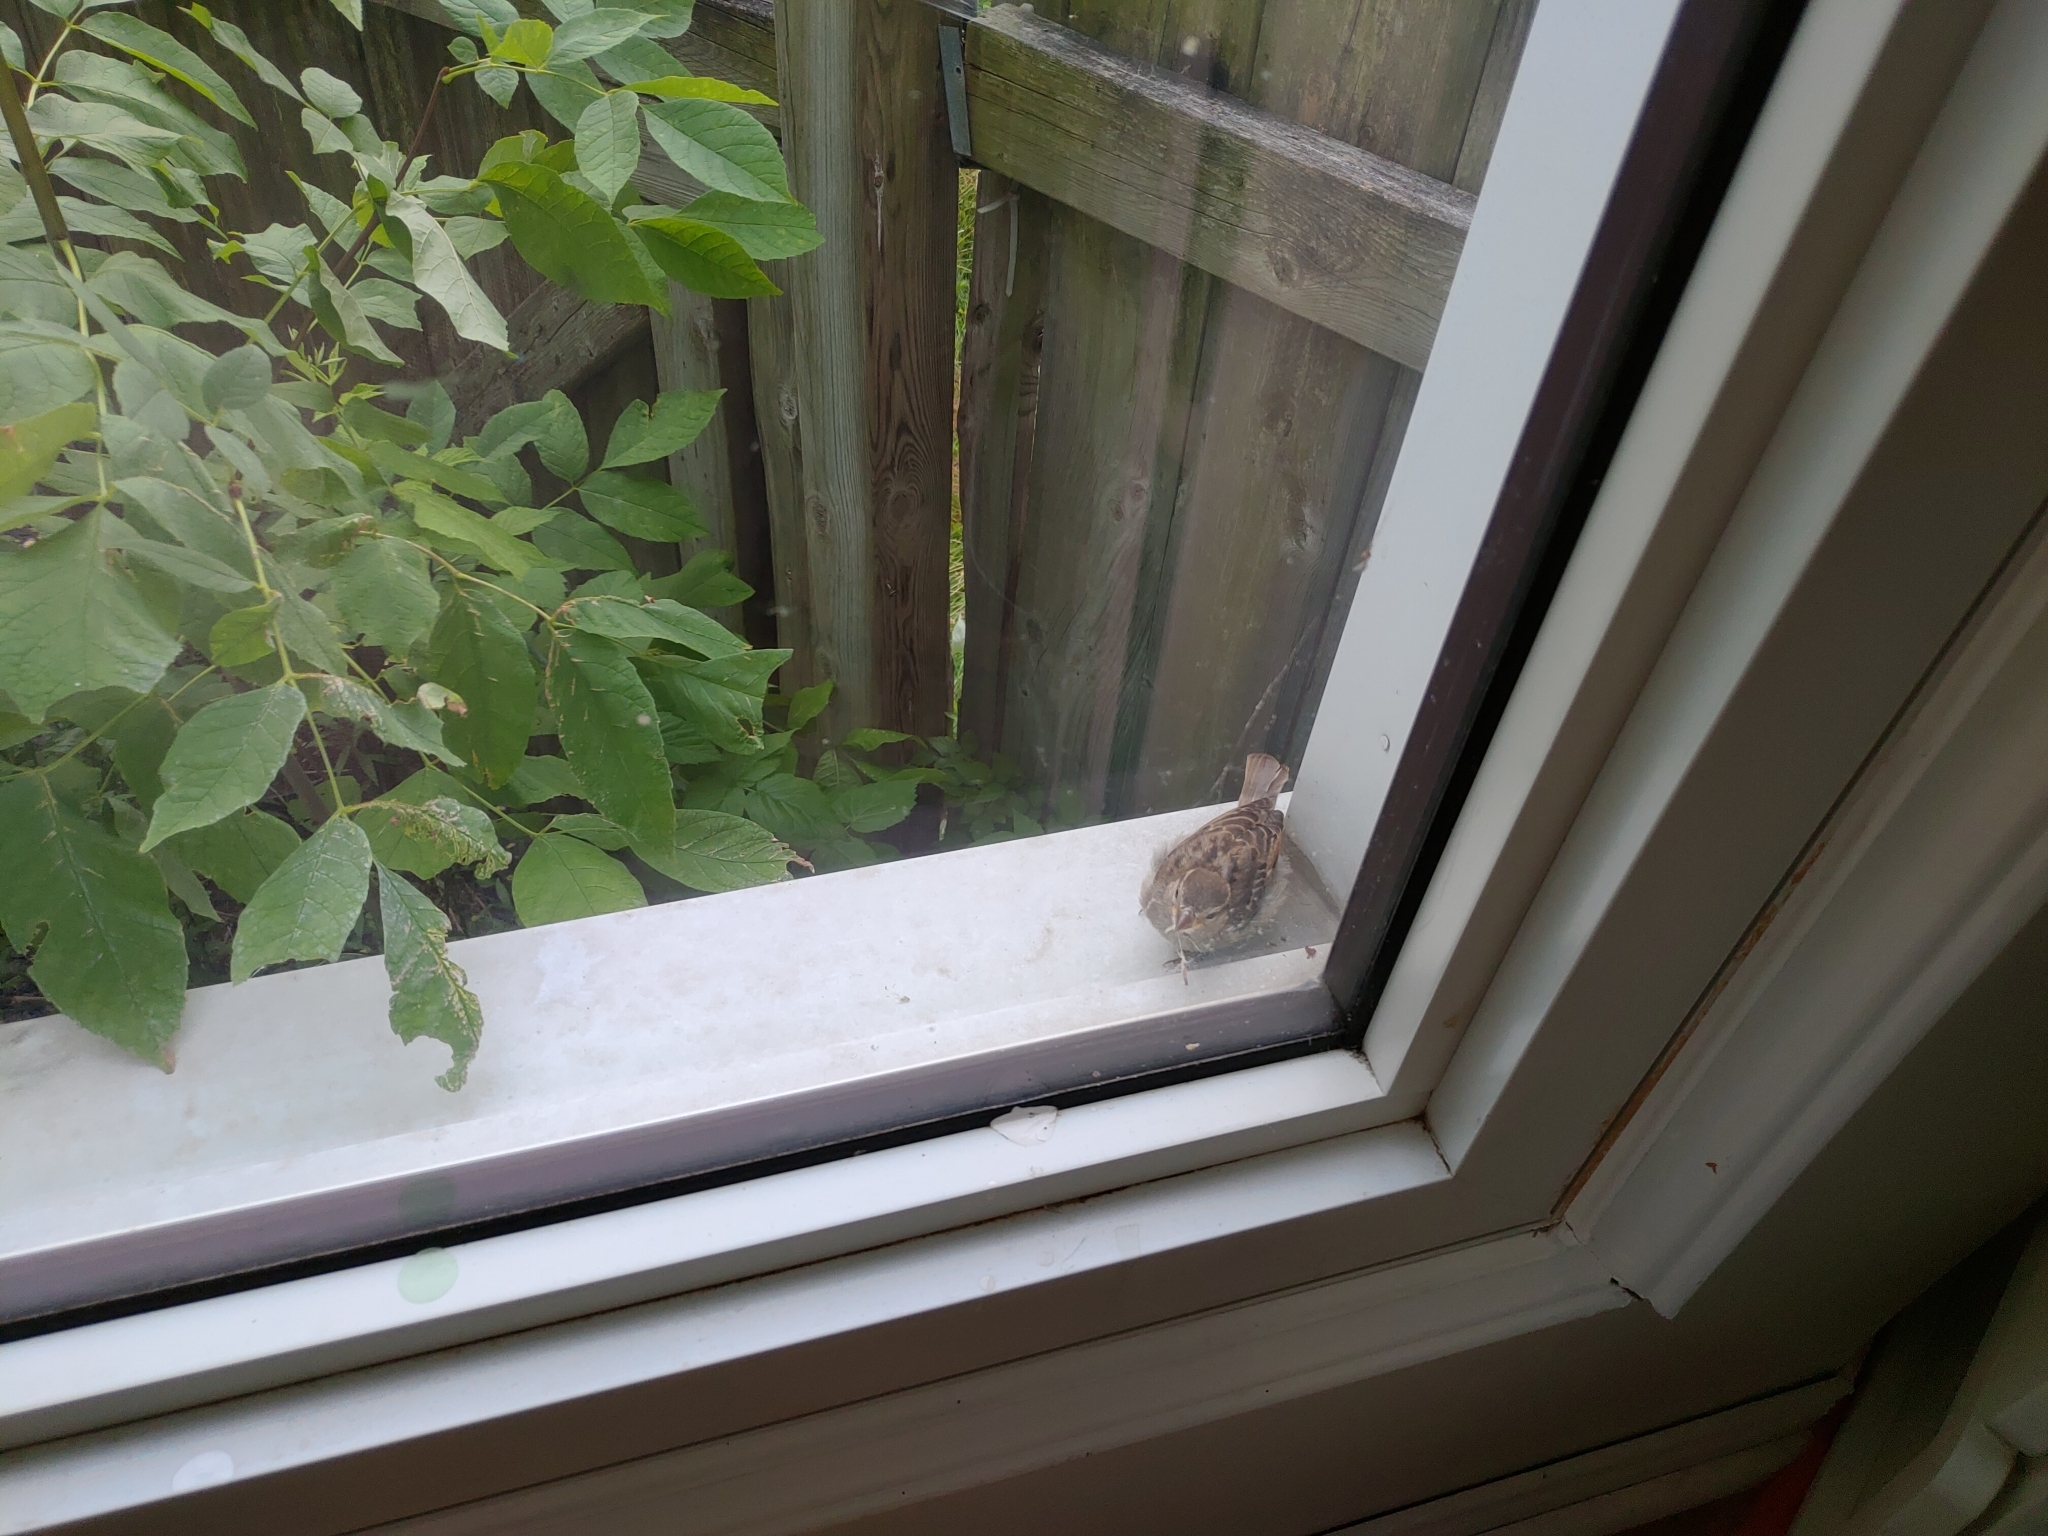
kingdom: Animalia
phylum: Chordata
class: Aves
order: Passeriformes
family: Passeridae
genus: Passer
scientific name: Passer domesticus
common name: House sparrow
